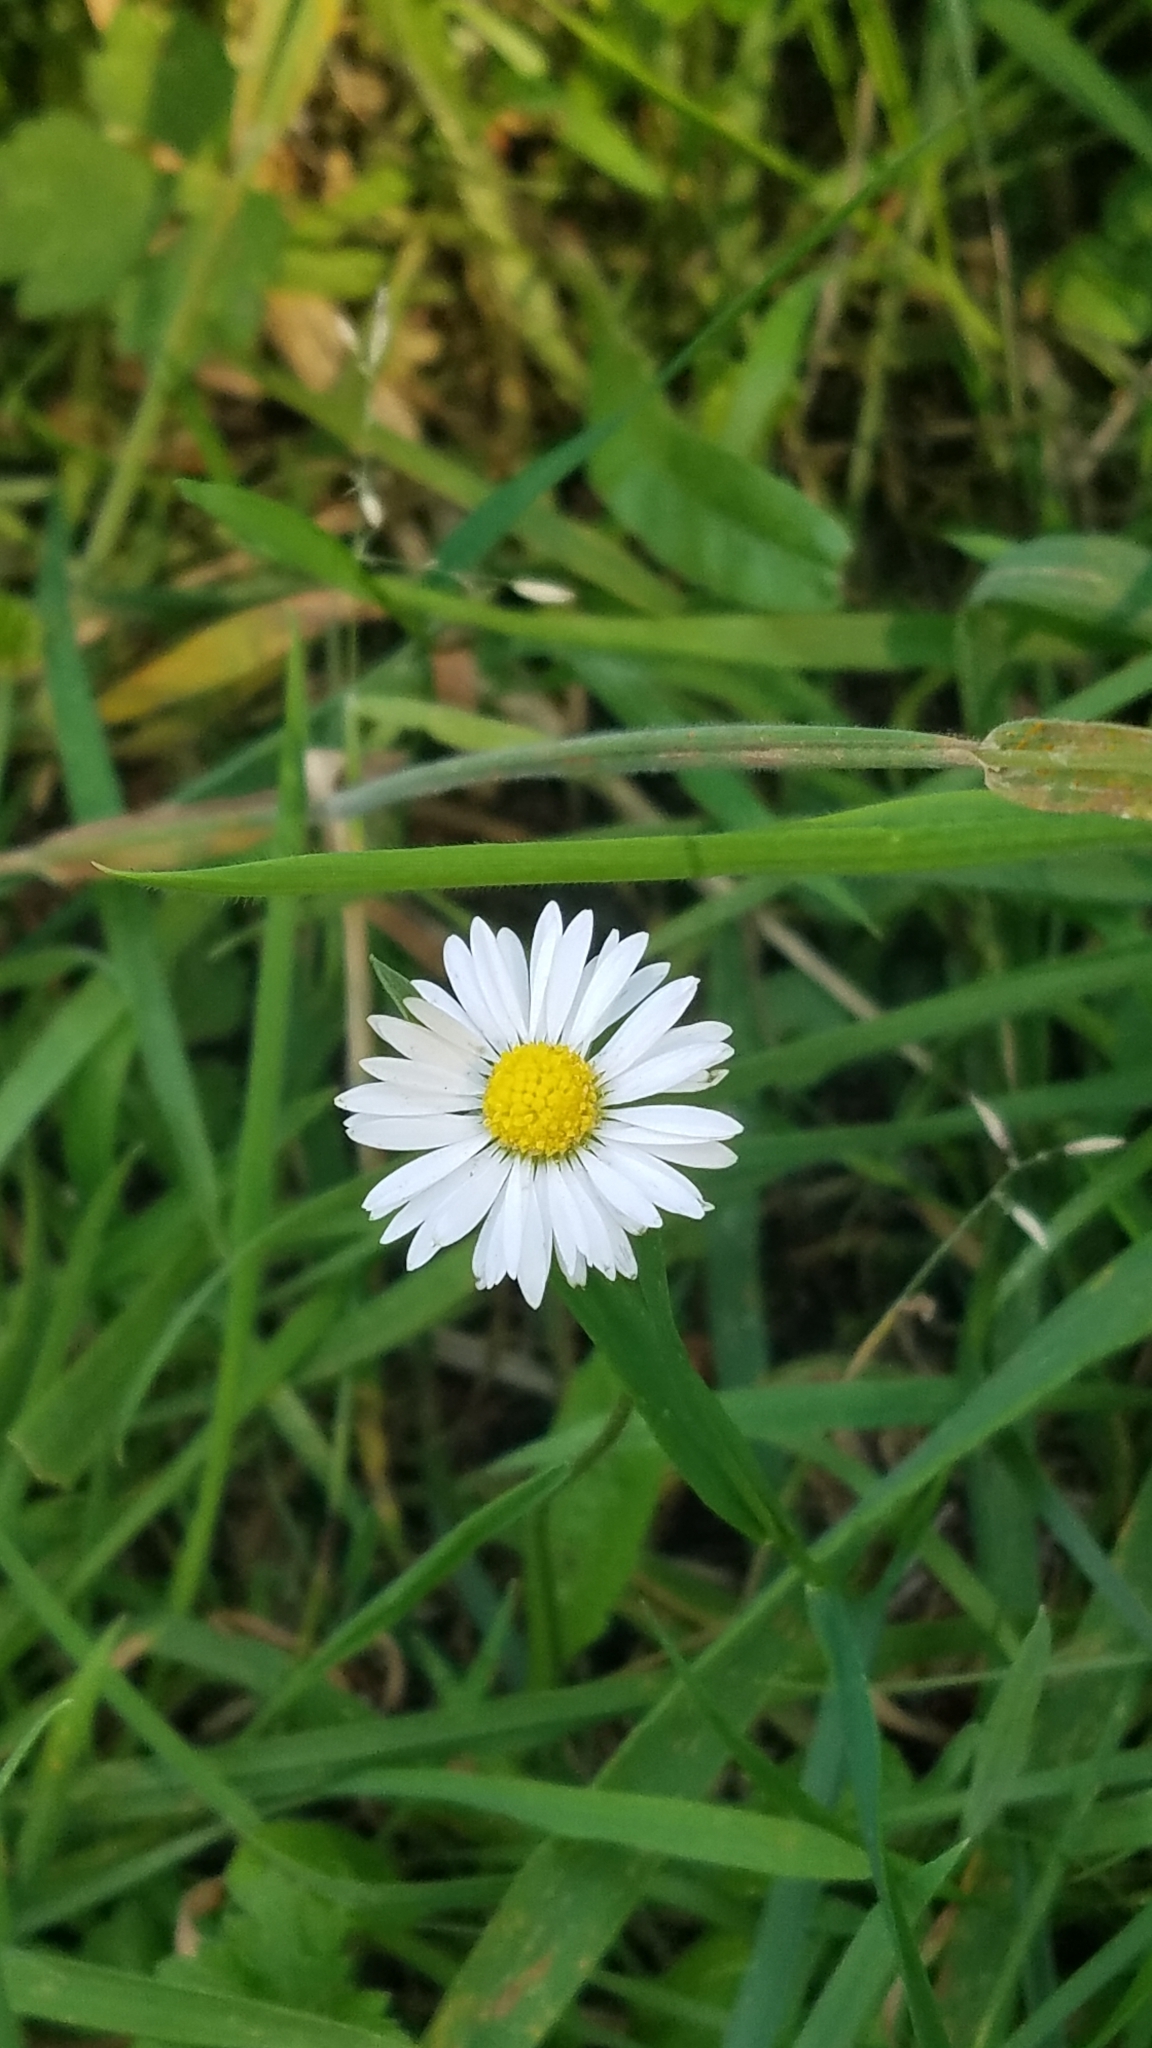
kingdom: Plantae
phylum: Tracheophyta
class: Magnoliopsida
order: Asterales
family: Asteraceae
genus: Bellis
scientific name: Bellis perennis
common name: Lawndaisy
